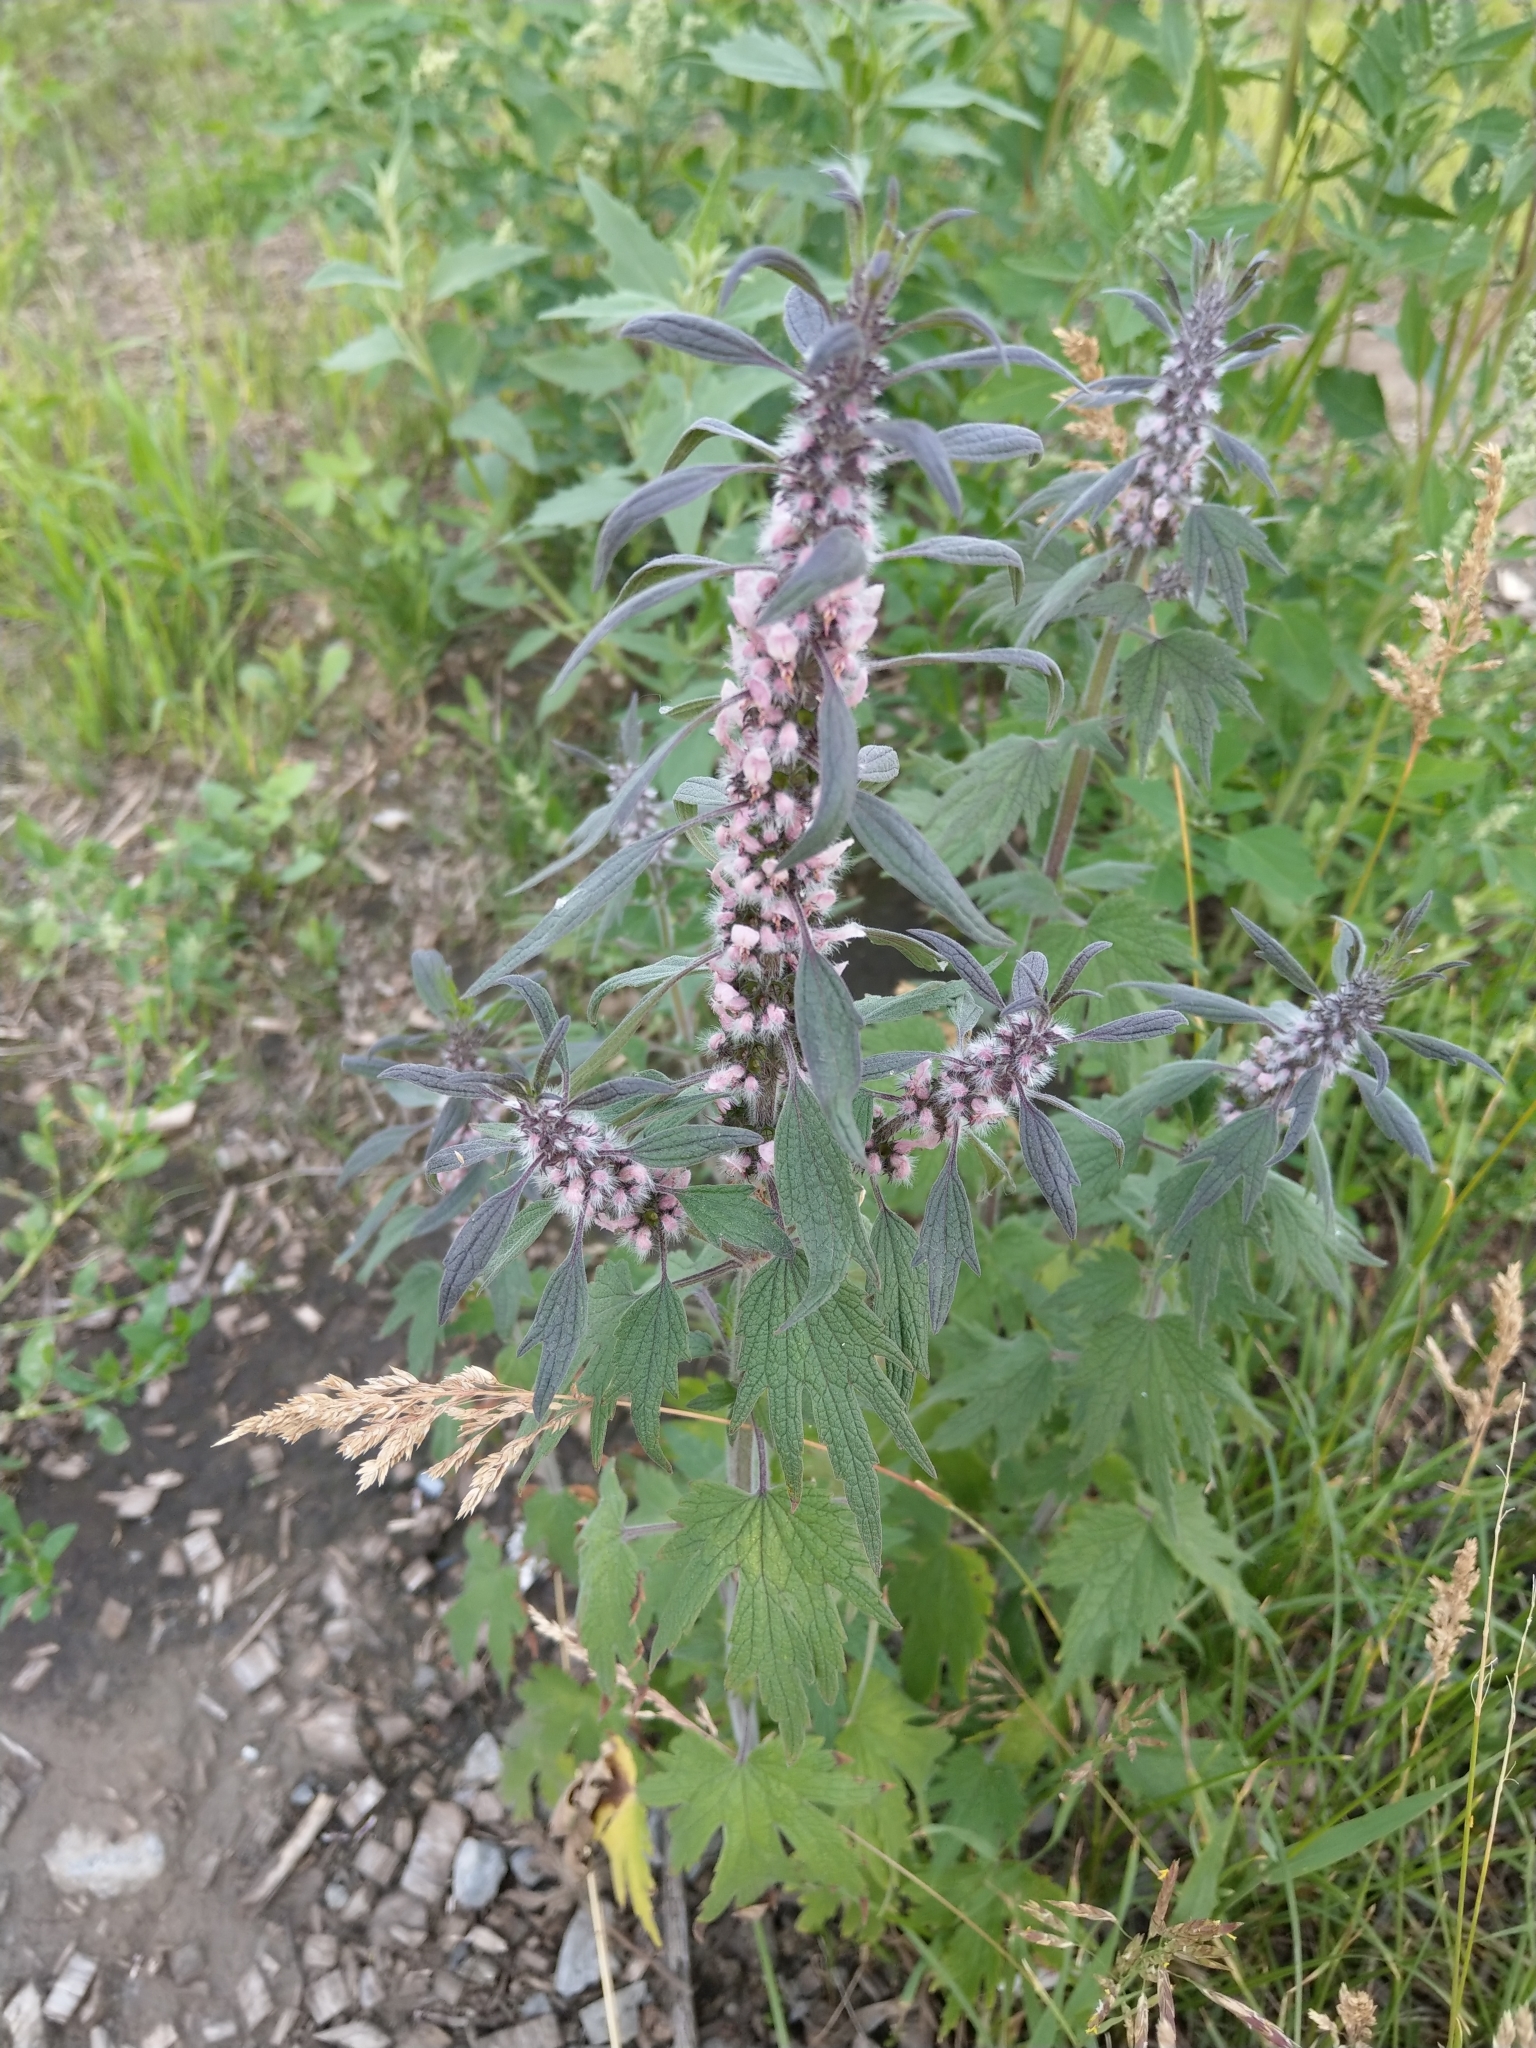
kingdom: Plantae
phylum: Tracheophyta
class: Magnoliopsida
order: Lamiales
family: Lamiaceae
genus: Leonurus
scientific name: Leonurus quinquelobatus
